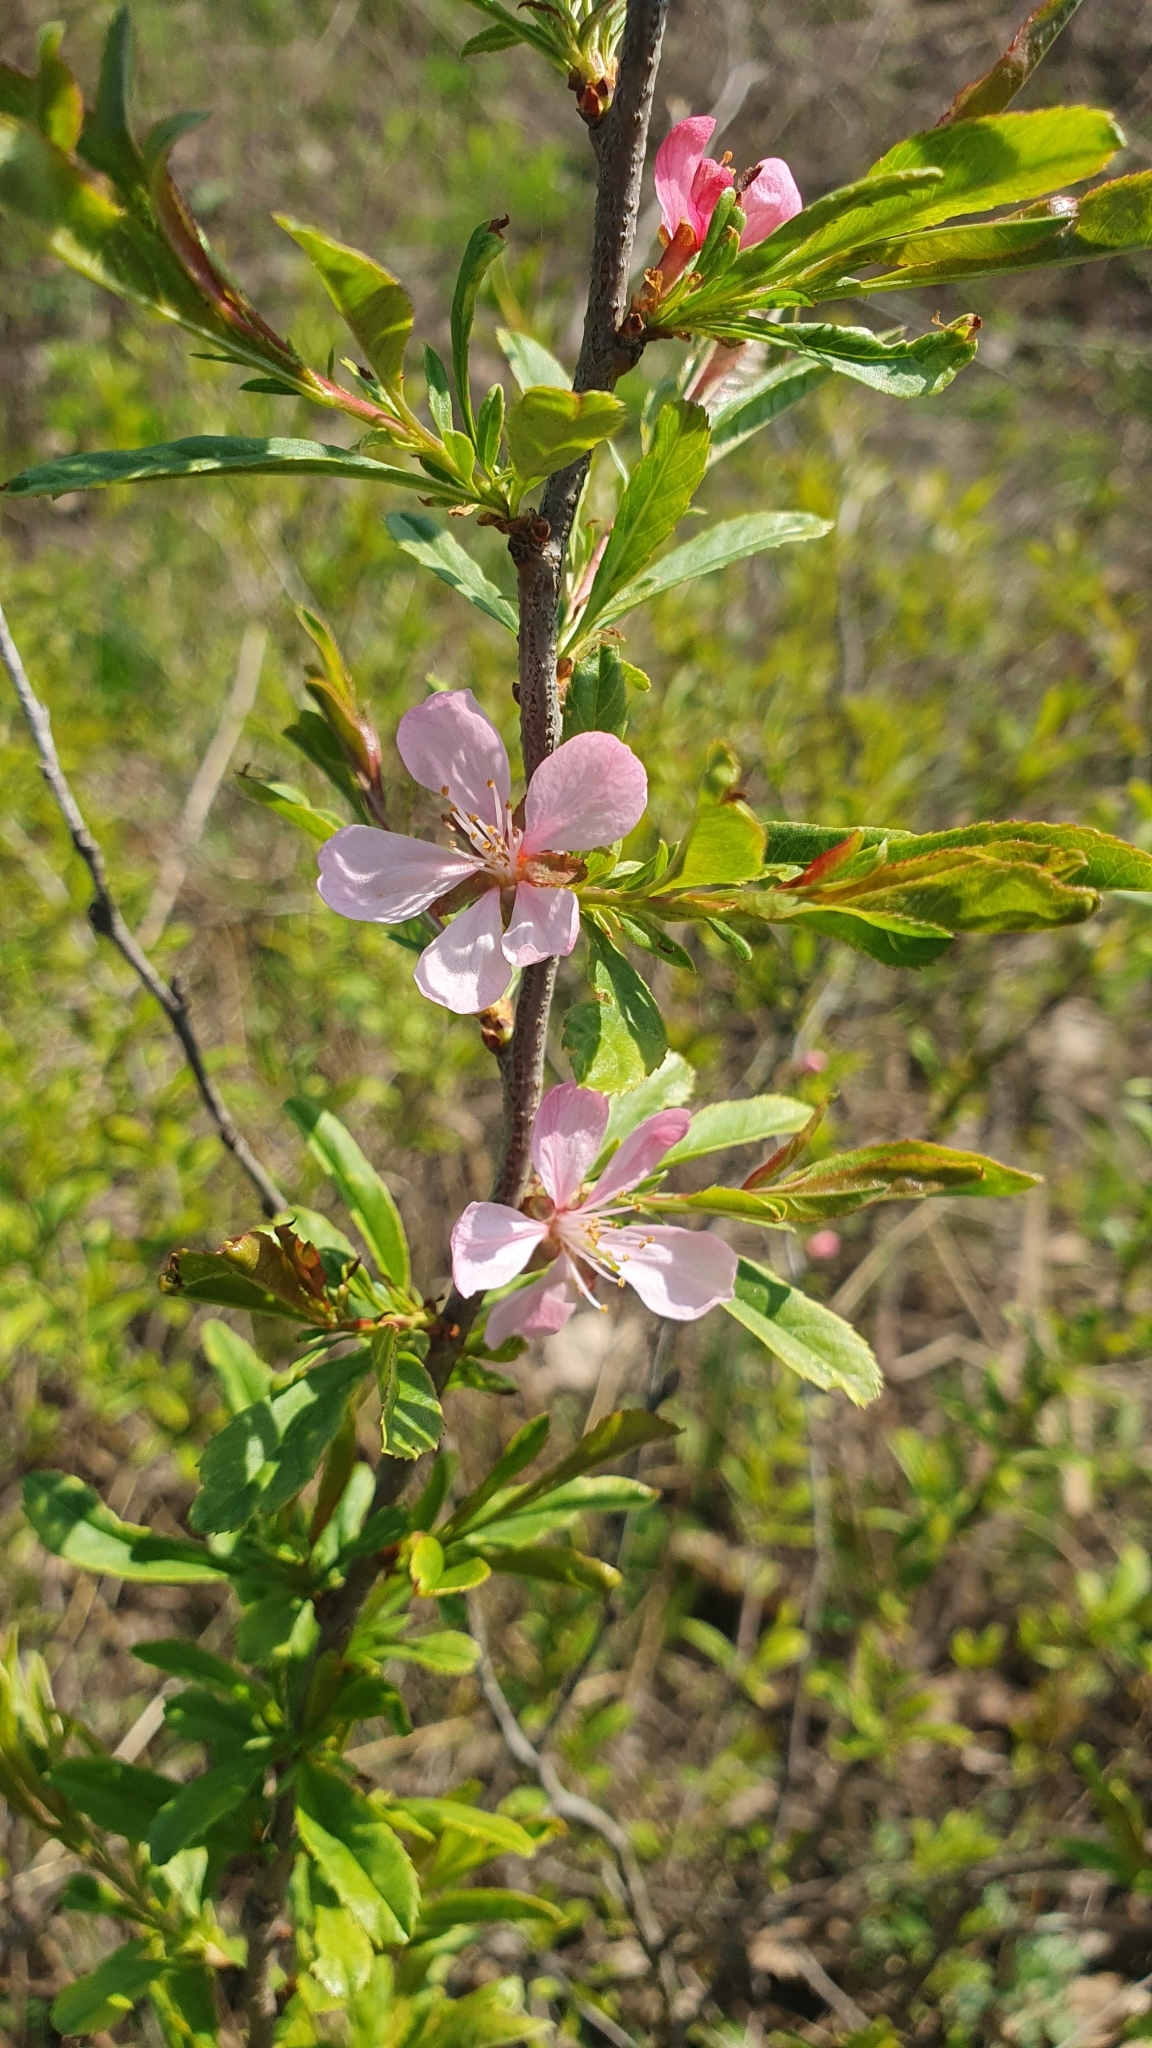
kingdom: Plantae
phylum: Tracheophyta
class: Magnoliopsida
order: Rosales
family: Rosaceae
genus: Prunus
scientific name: Prunus tenella
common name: Dwarf russian almond
